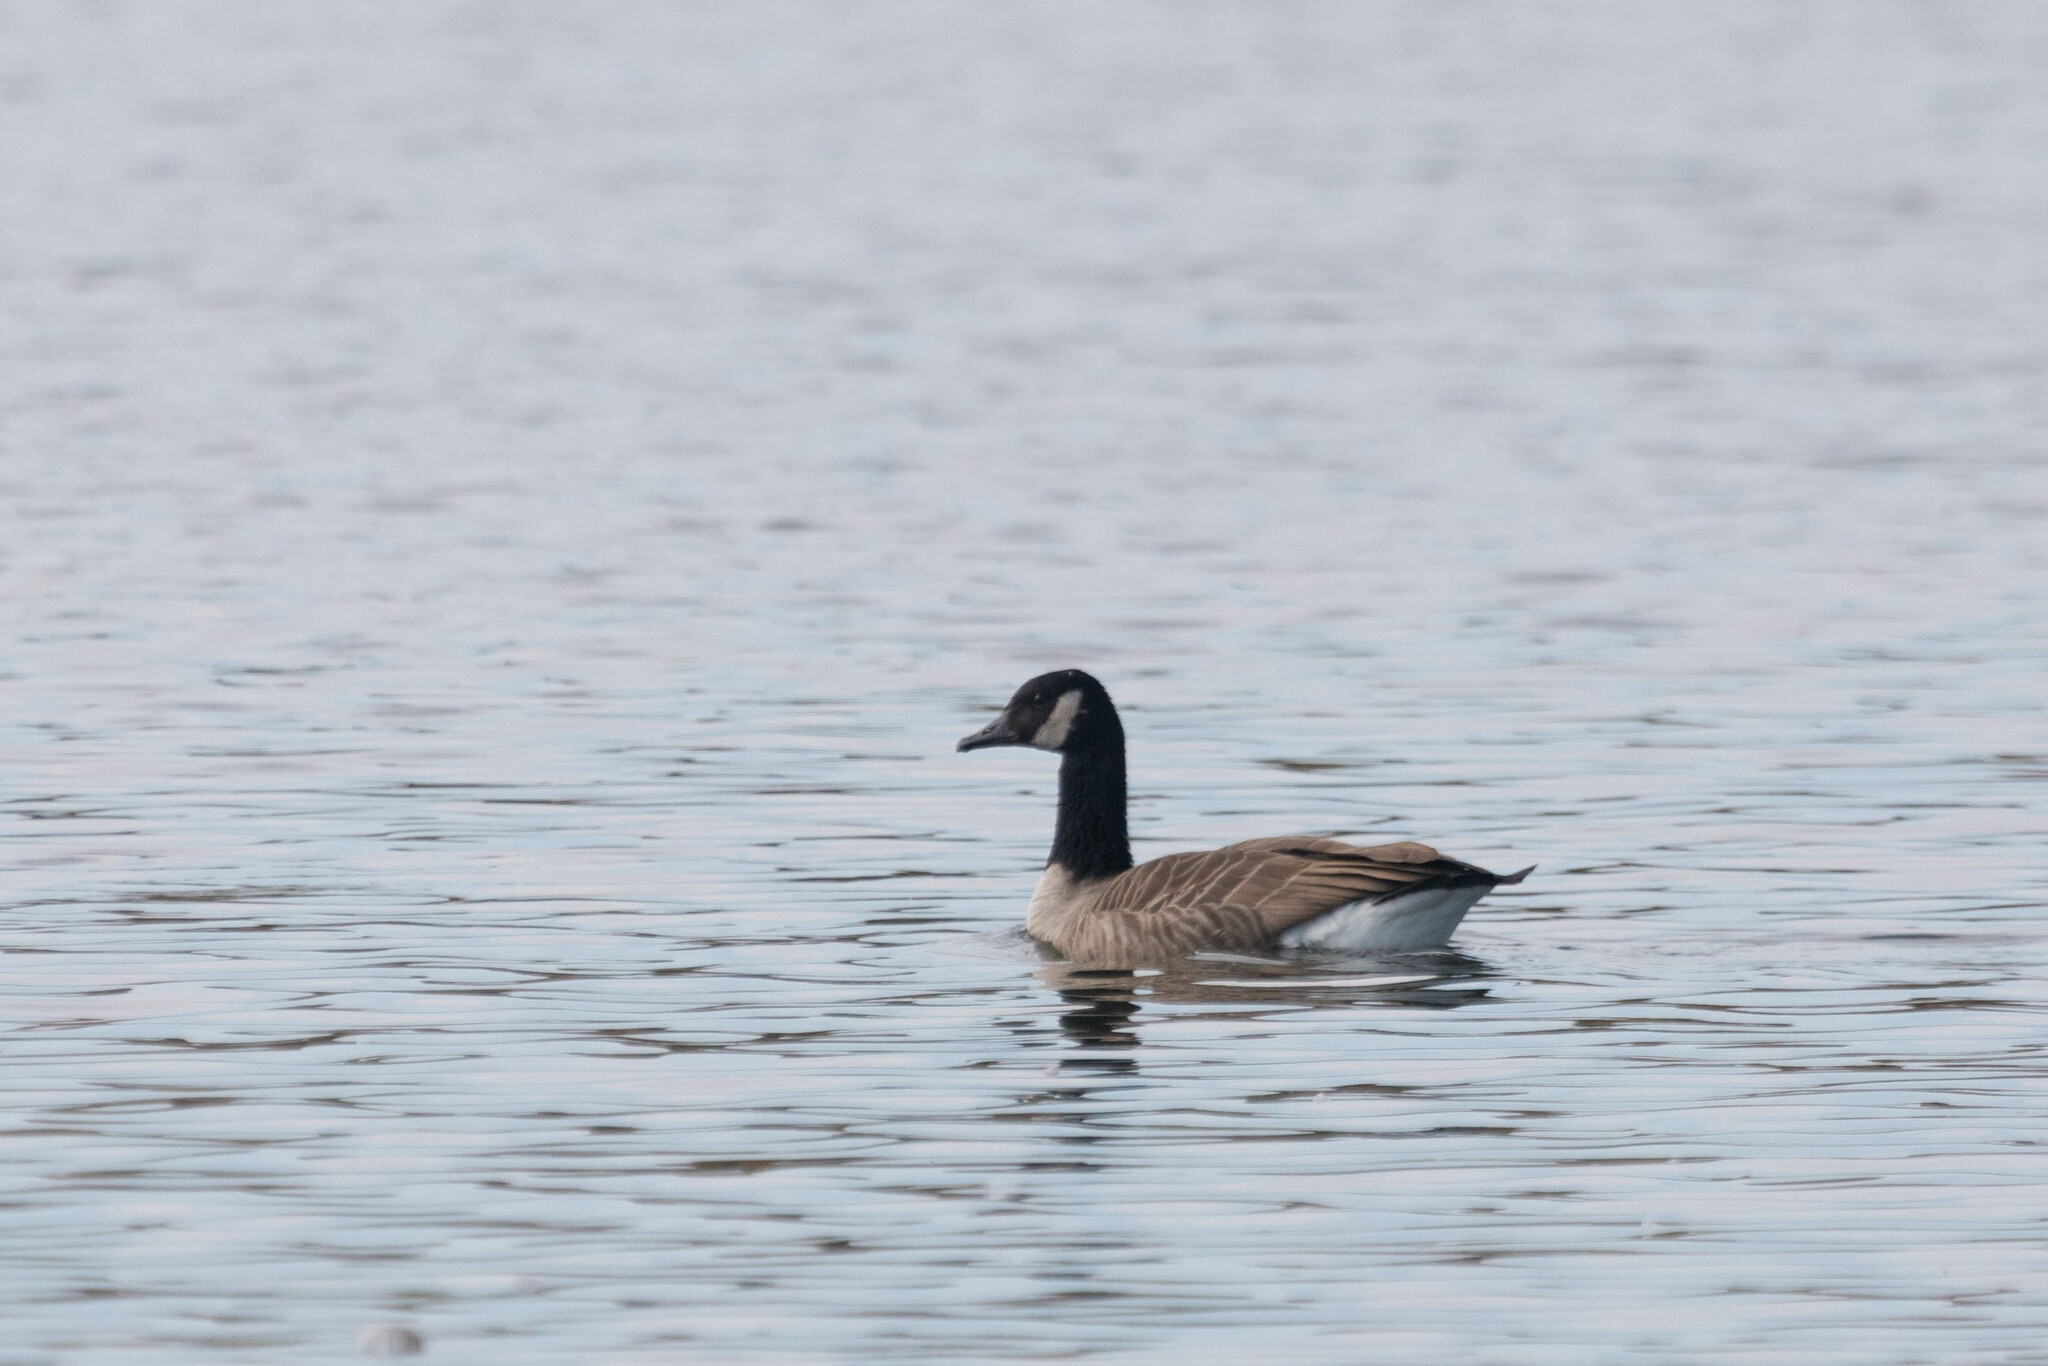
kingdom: Animalia
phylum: Chordata
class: Aves
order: Anseriformes
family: Anatidae
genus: Branta
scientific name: Branta canadensis
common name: Canada goose
